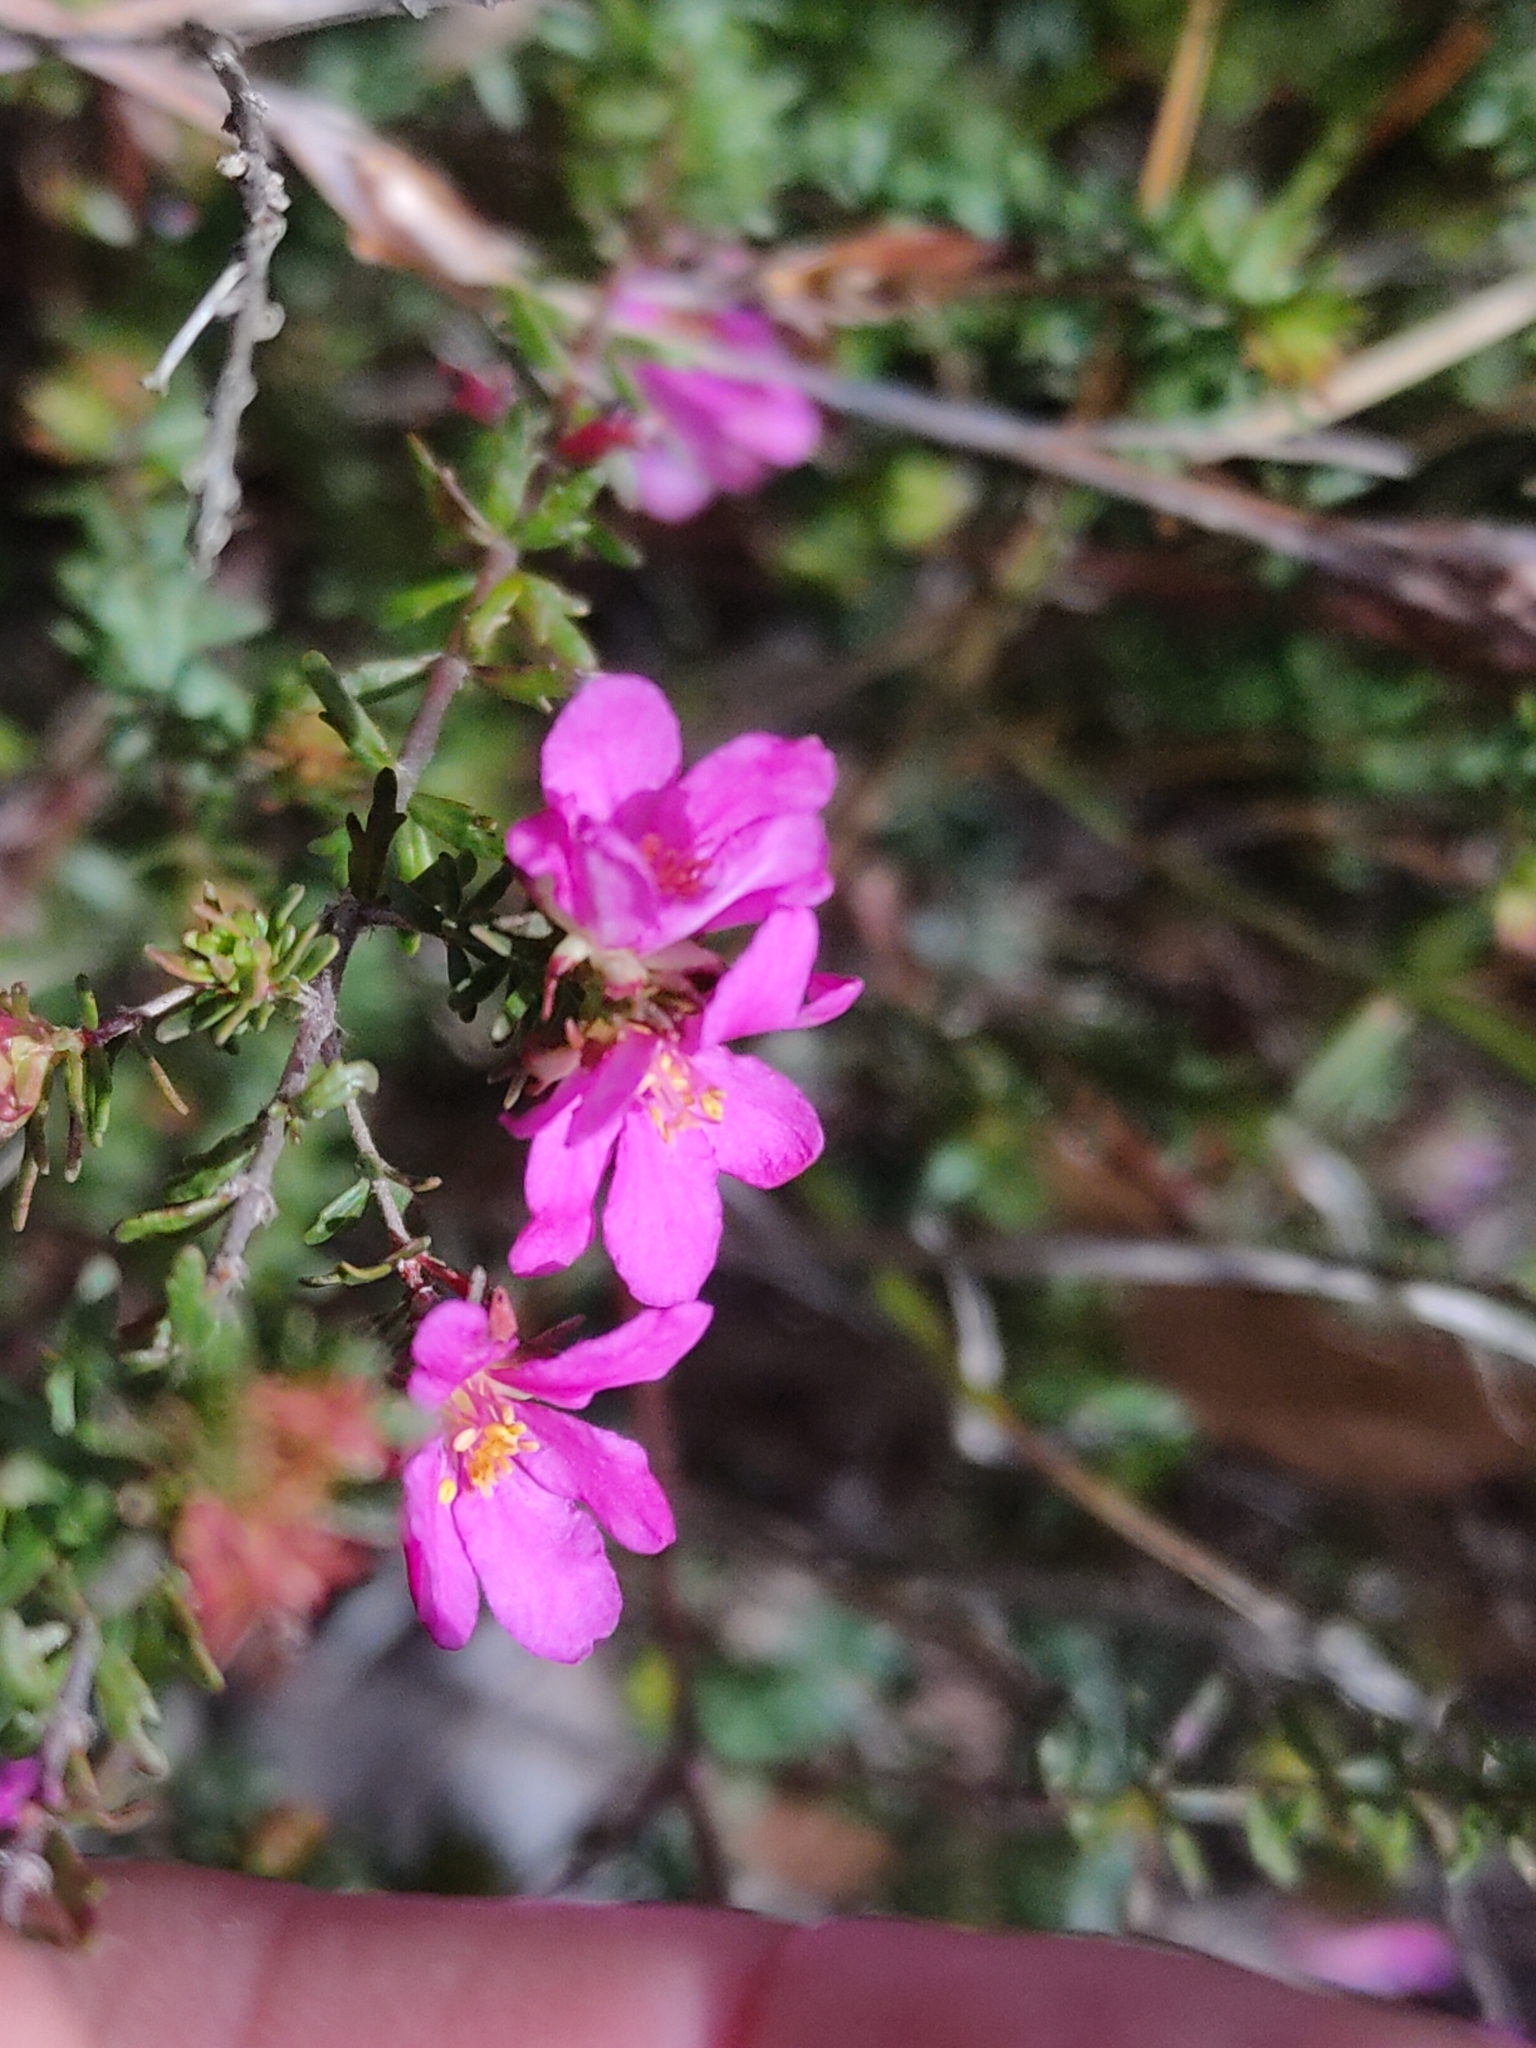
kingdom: Plantae
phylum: Tracheophyta
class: Magnoliopsida
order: Oxalidales
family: Cunoniaceae
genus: Bauera
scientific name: Bauera capitata
